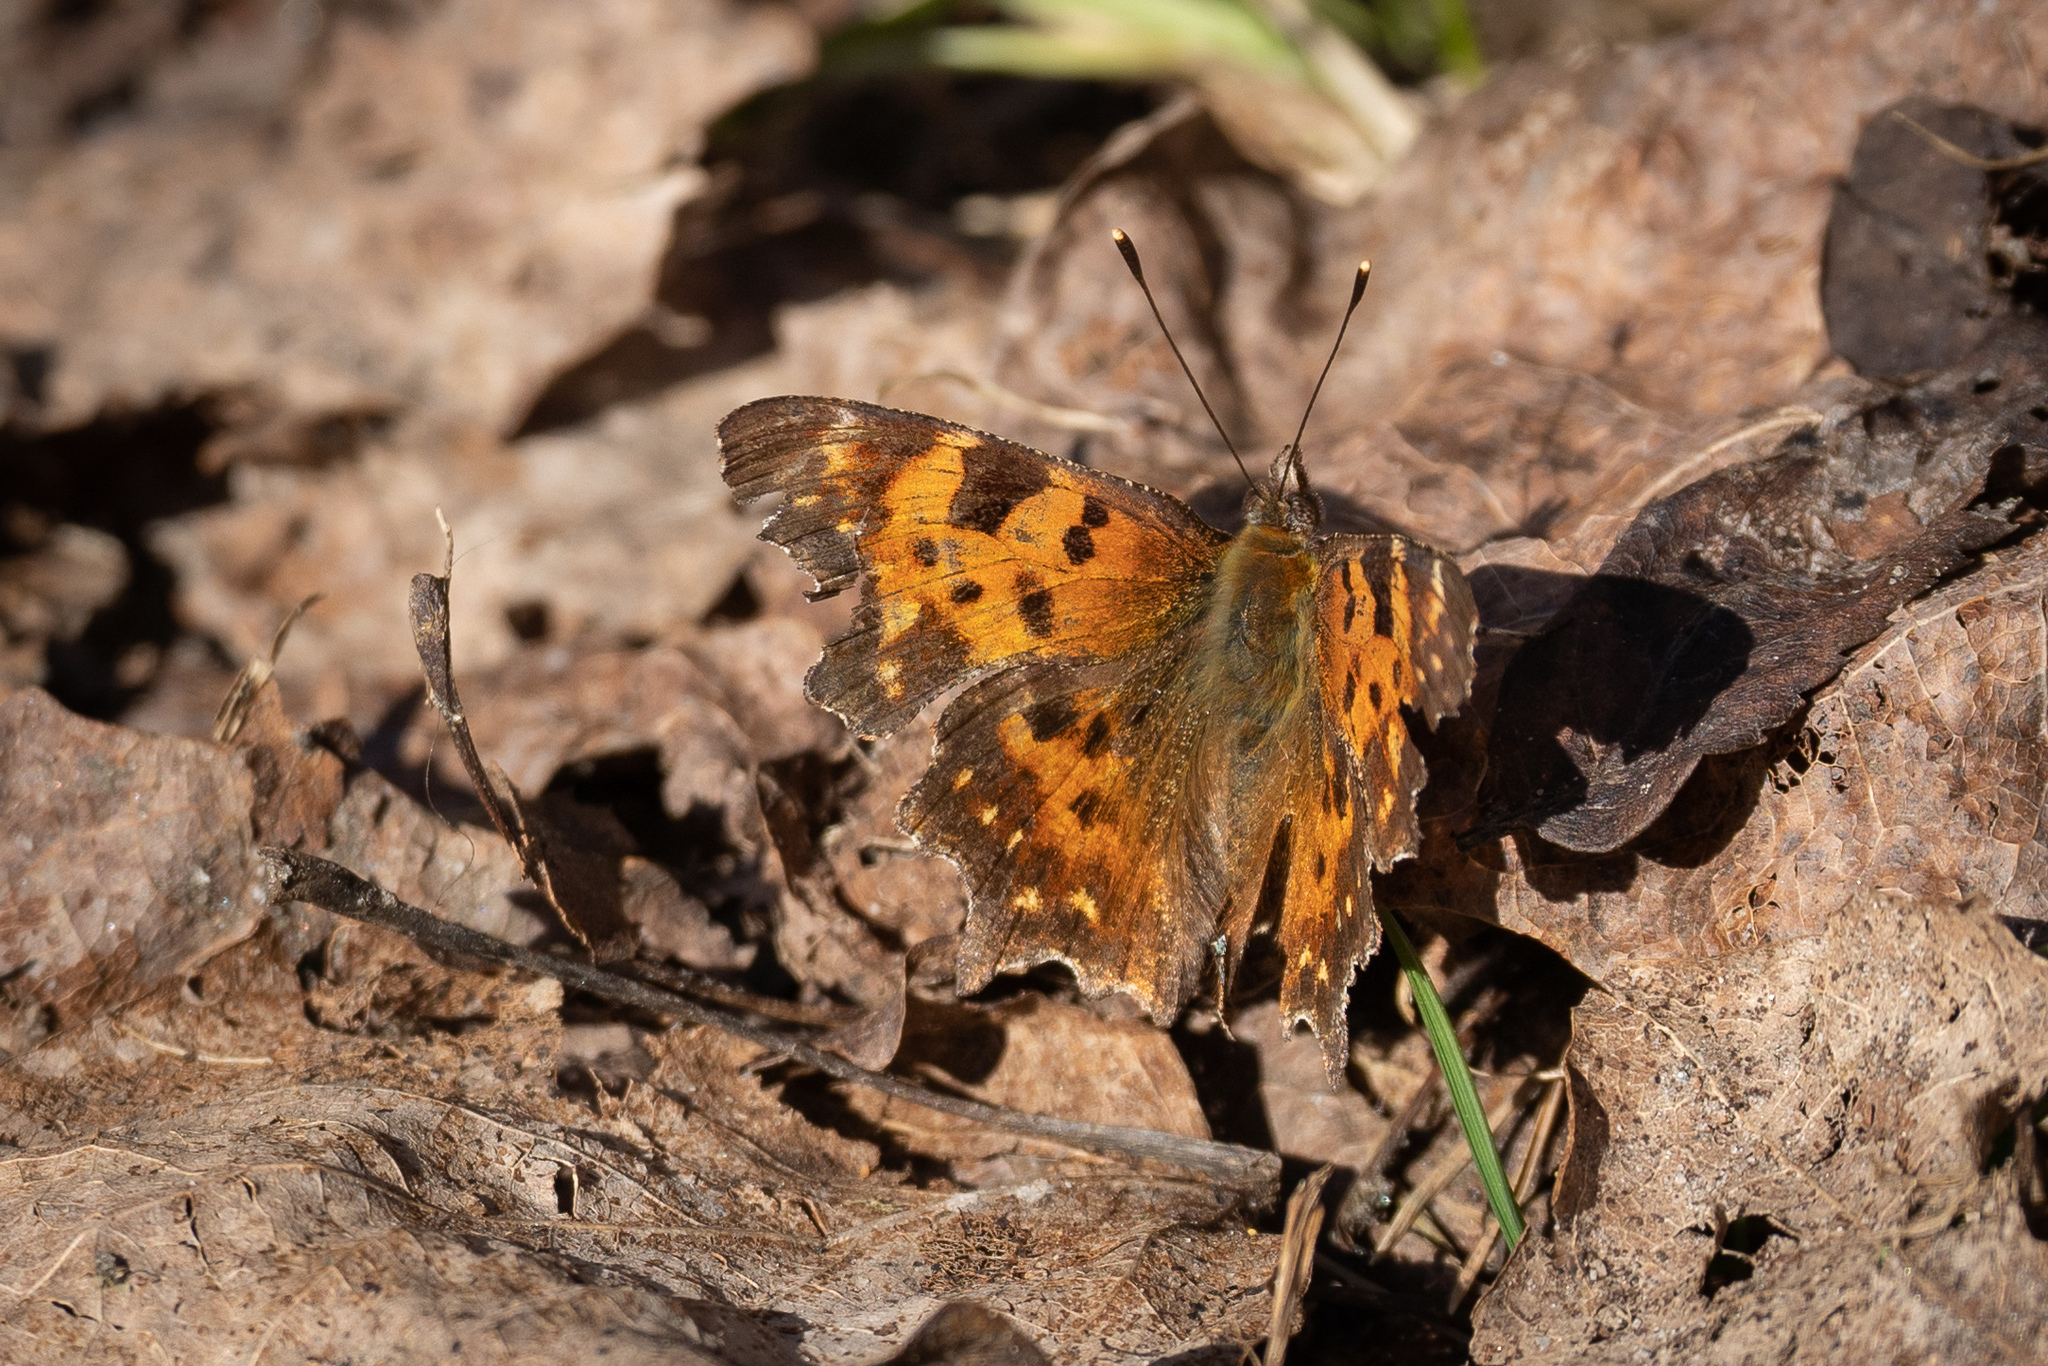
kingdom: Animalia
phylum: Arthropoda
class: Insecta
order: Lepidoptera
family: Nymphalidae
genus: Polygonia
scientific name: Polygonia c-album
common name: Comma
